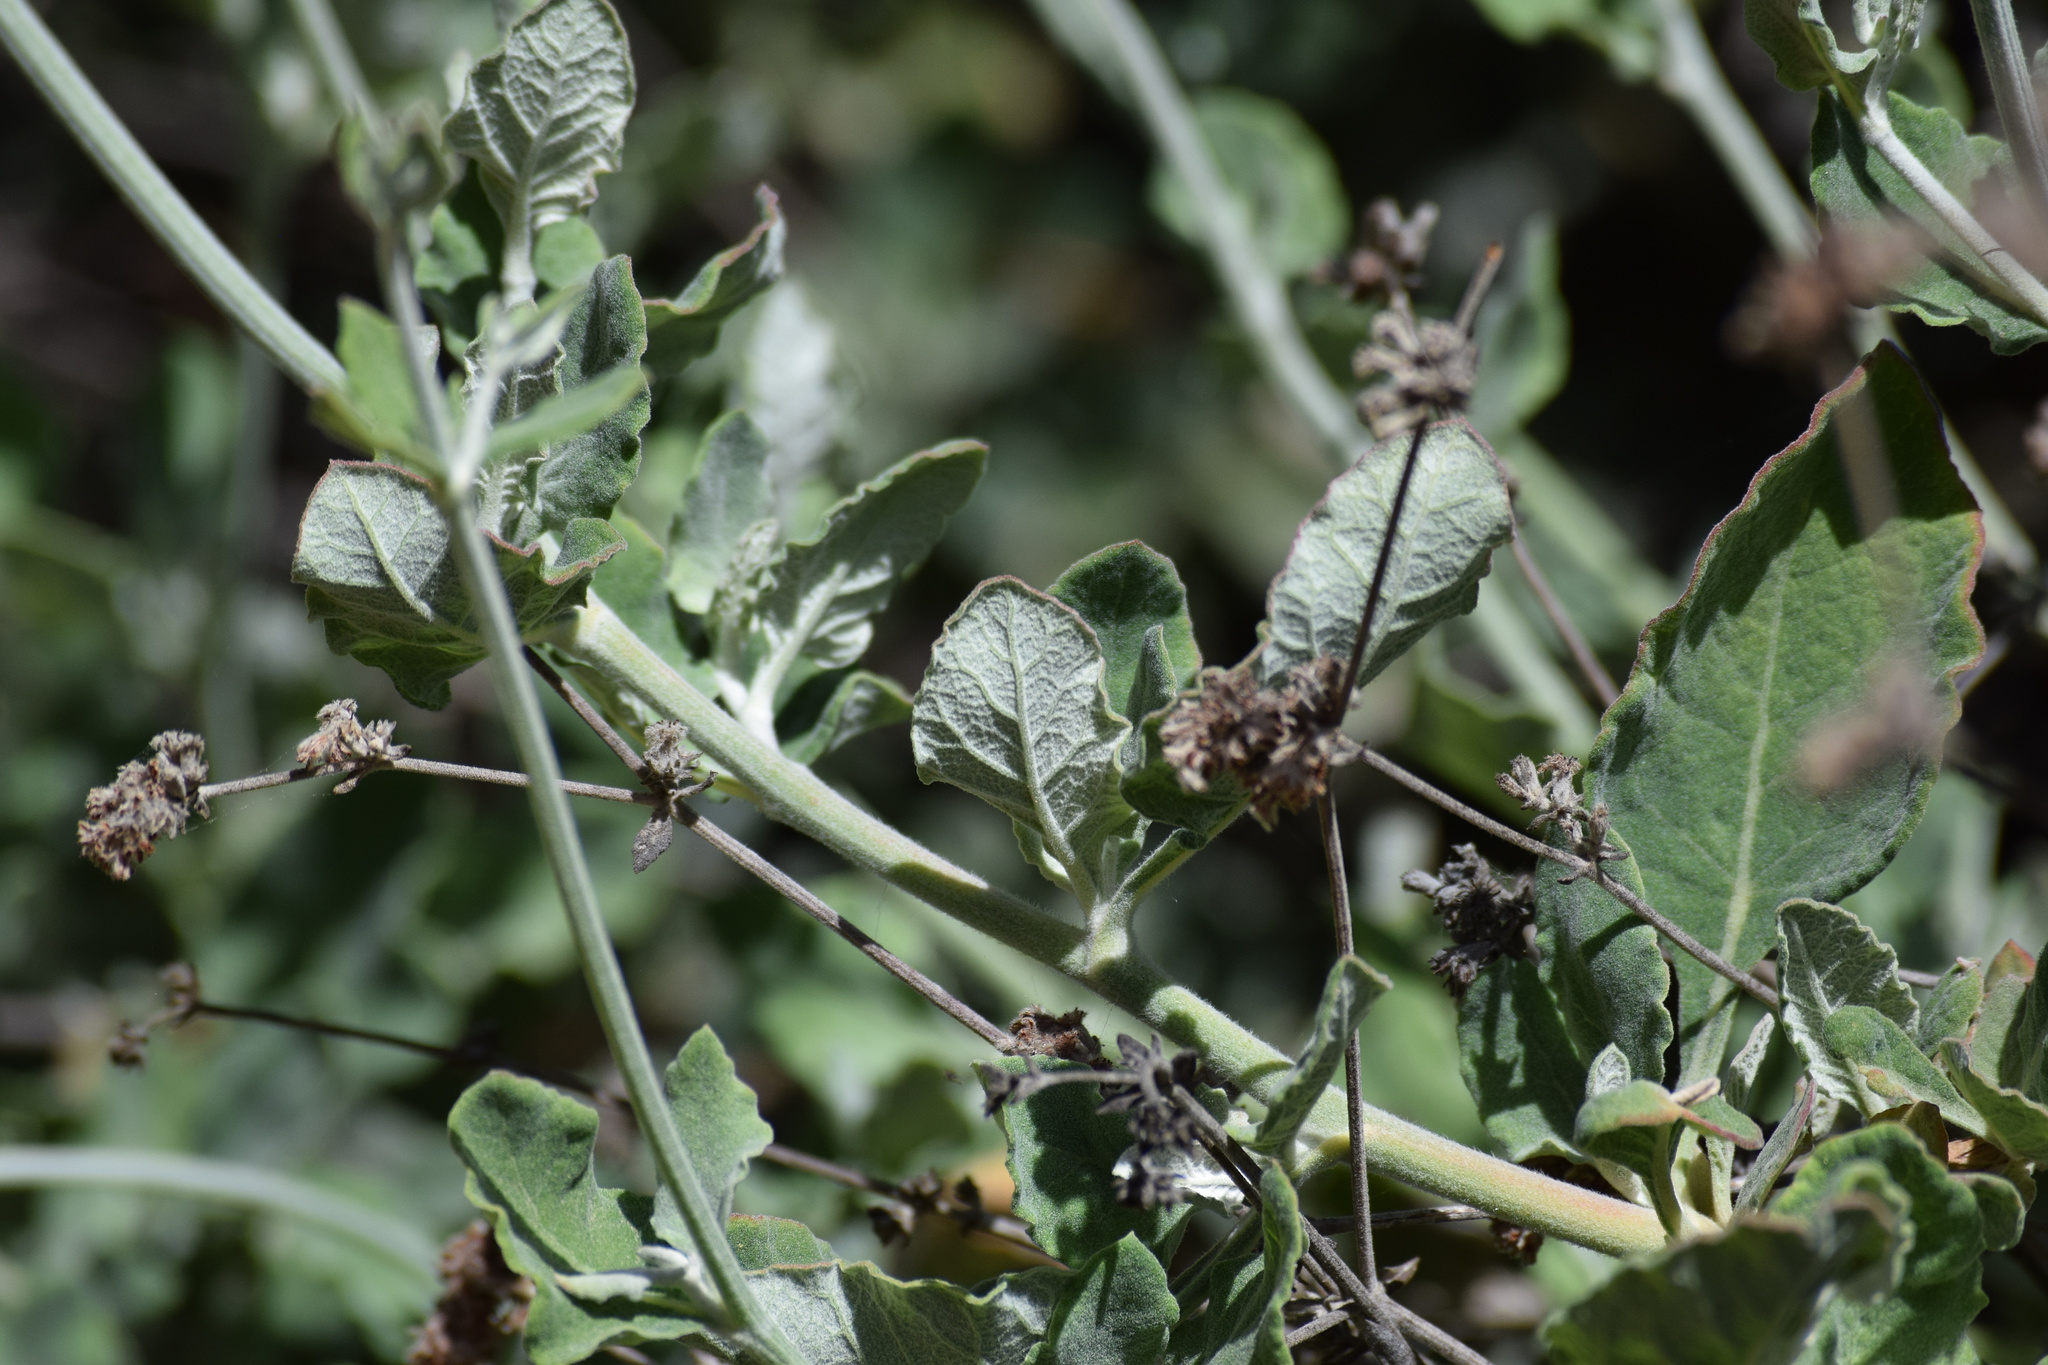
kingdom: Plantae
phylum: Tracheophyta
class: Magnoliopsida
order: Caryophyllales
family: Polygonaceae
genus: Eriogonum
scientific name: Eriogonum cinereum
